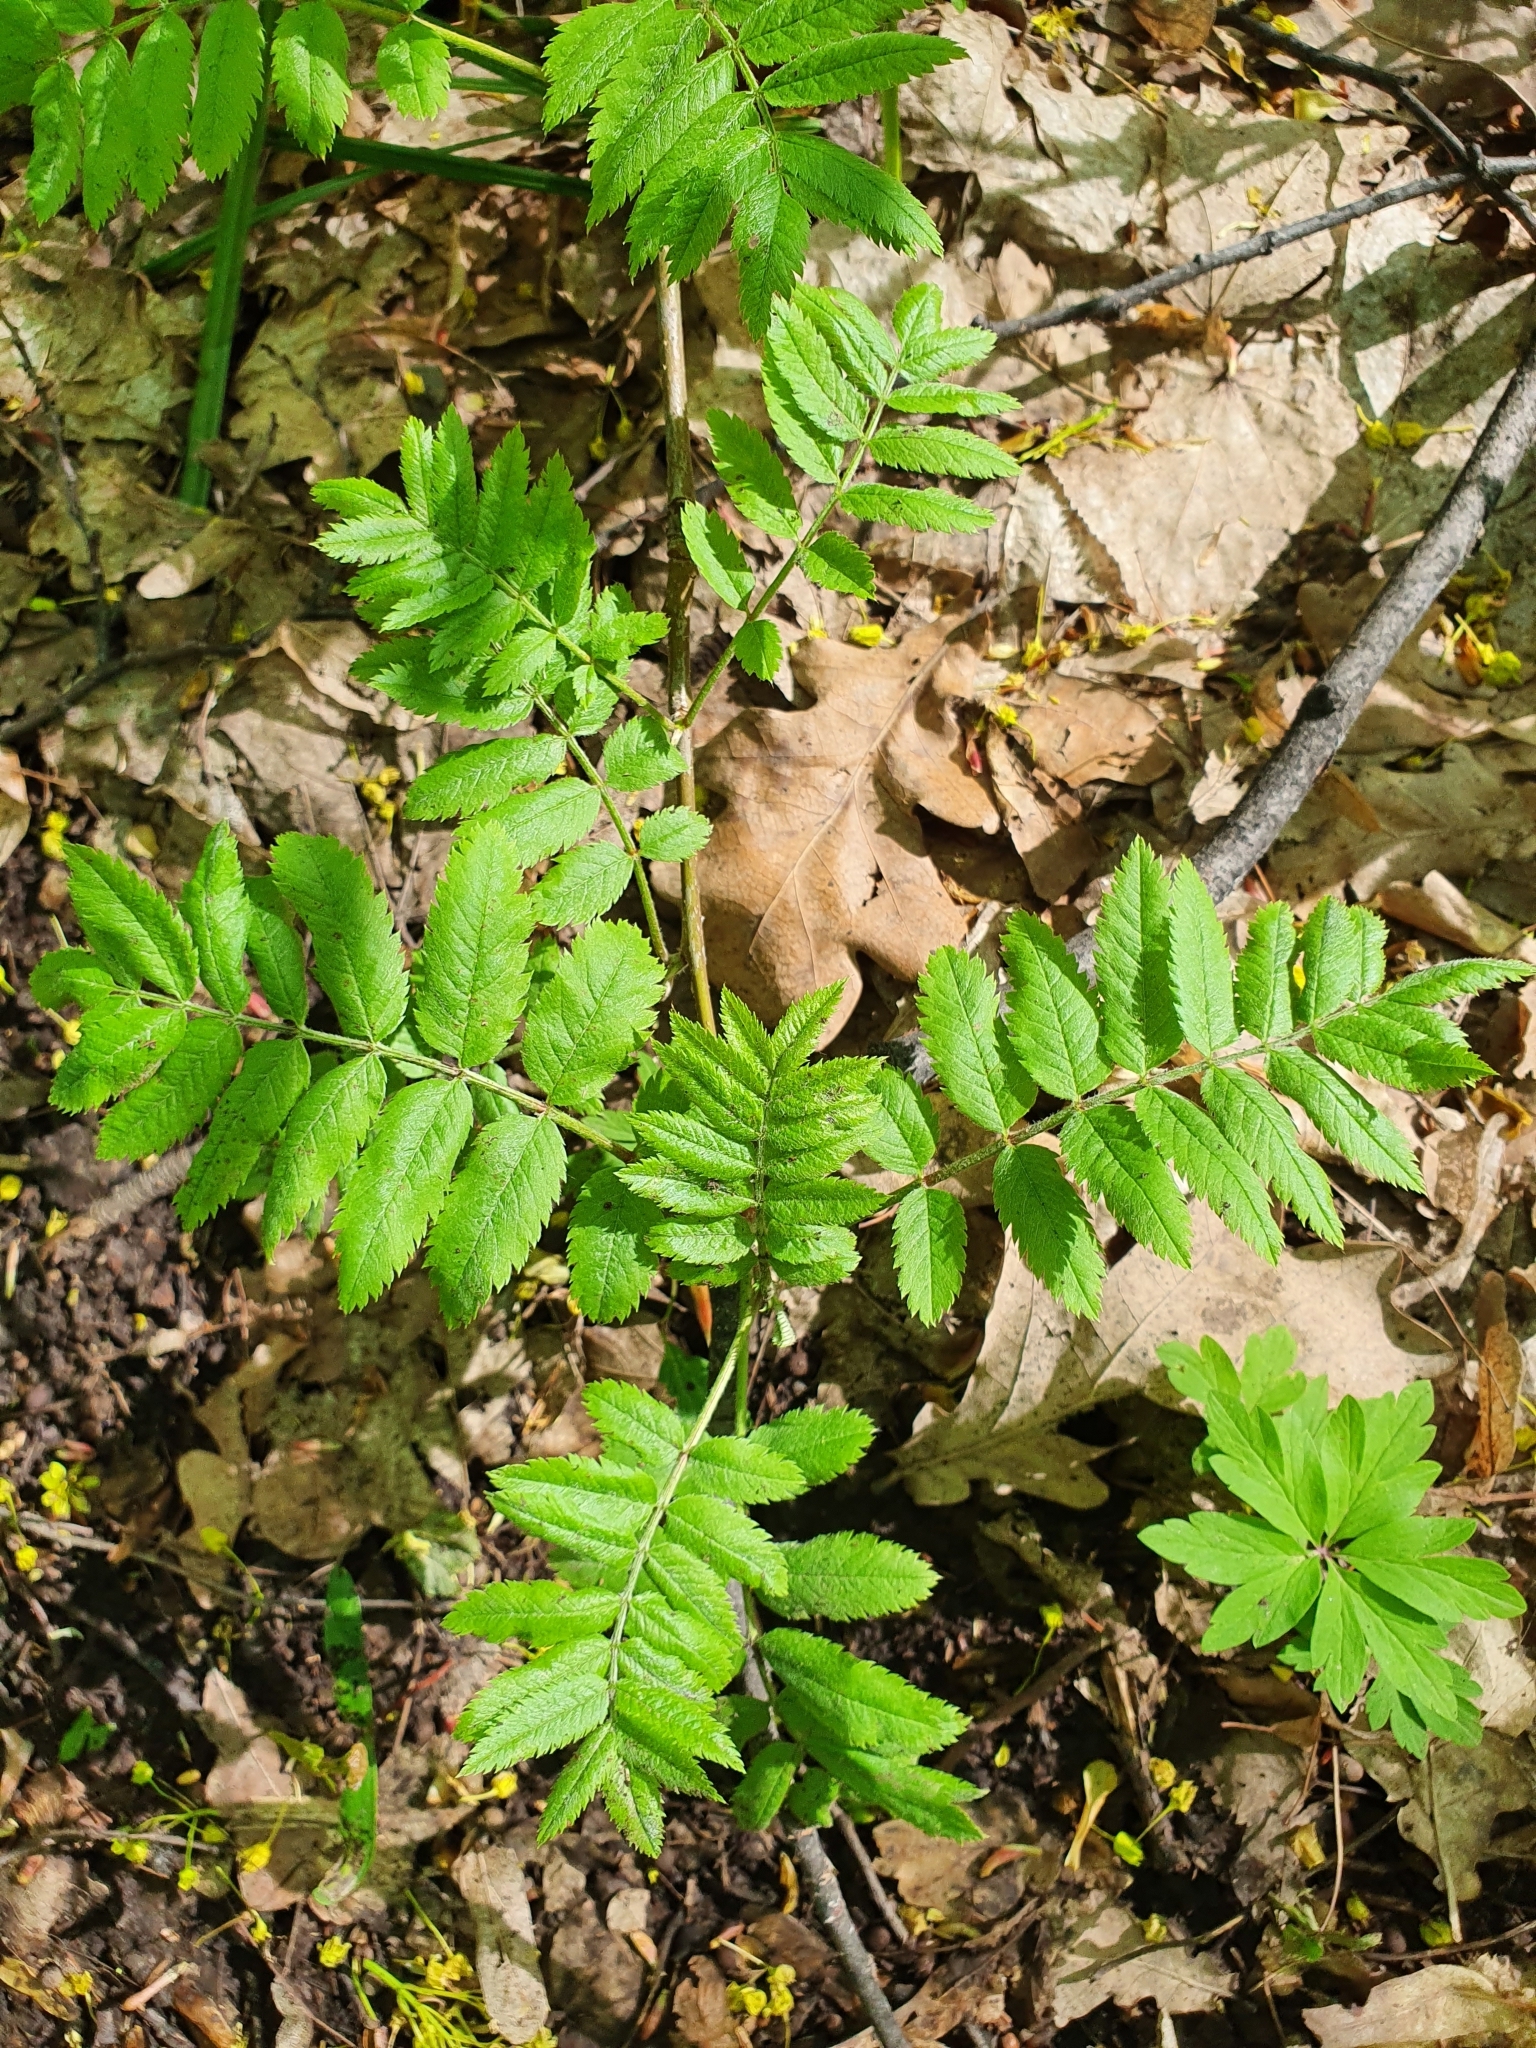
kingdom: Plantae
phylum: Tracheophyta
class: Magnoliopsida
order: Rosales
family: Rosaceae
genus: Sorbus
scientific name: Sorbus aucuparia
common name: Rowan
